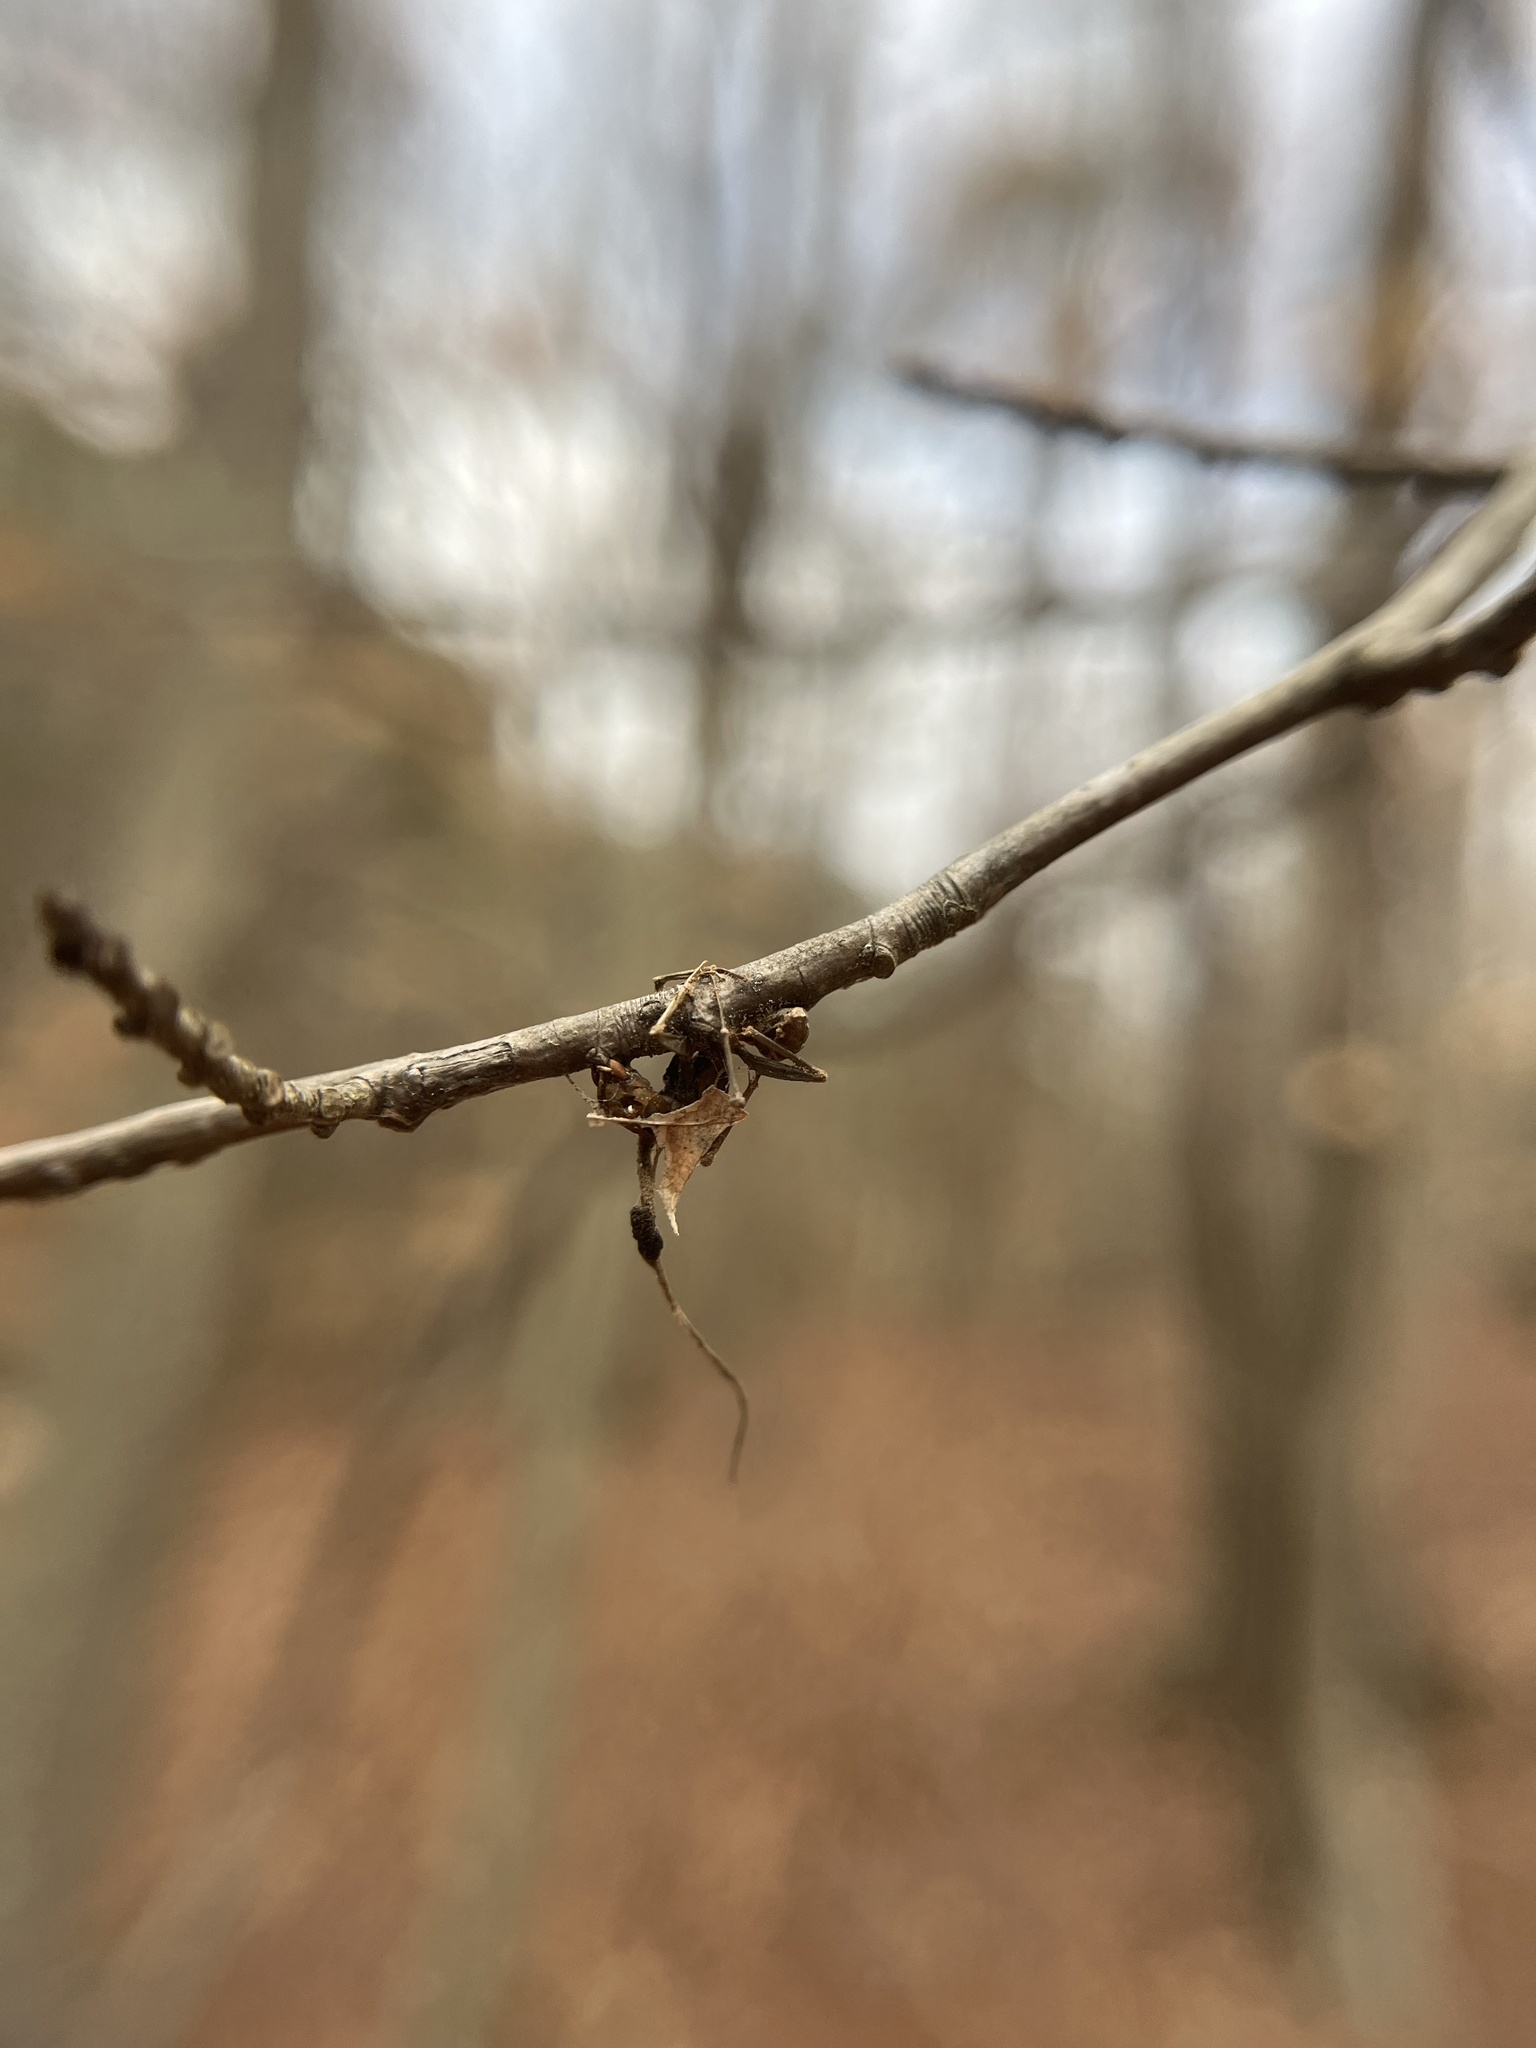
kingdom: Fungi
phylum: Ascomycota
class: Sordariomycetes
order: Hypocreales
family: Ophiocordycipitaceae
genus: Ophiocordyceps
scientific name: Ophiocordyceps kimflemingiae
